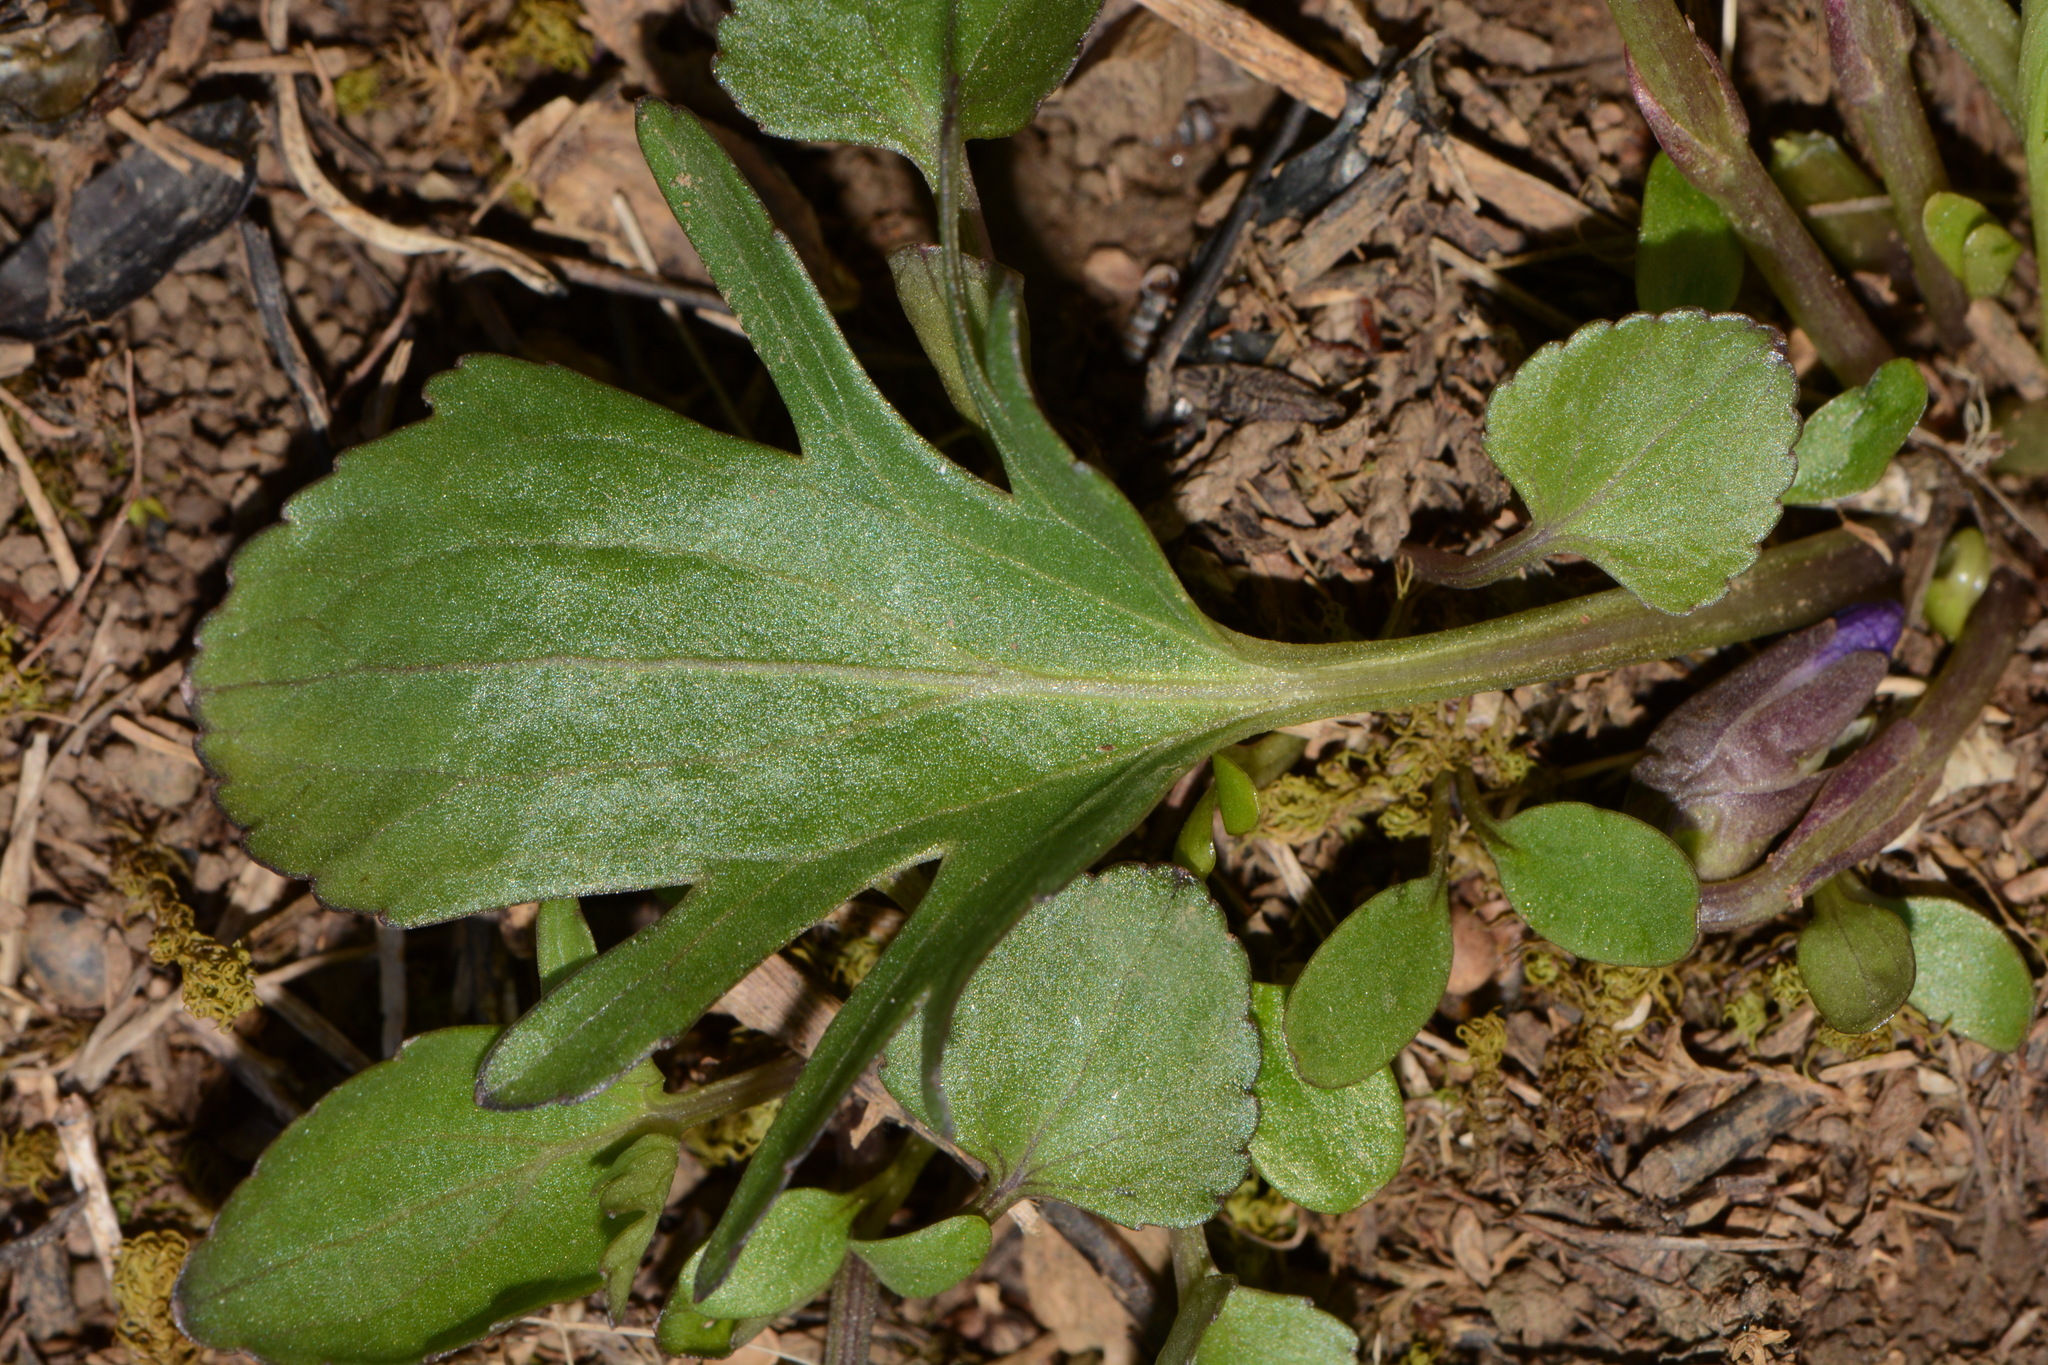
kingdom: Plantae
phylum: Tracheophyta
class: Magnoliopsida
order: Malpighiales
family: Violaceae
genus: Viola
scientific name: Viola egglestonii
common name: Glade violet
